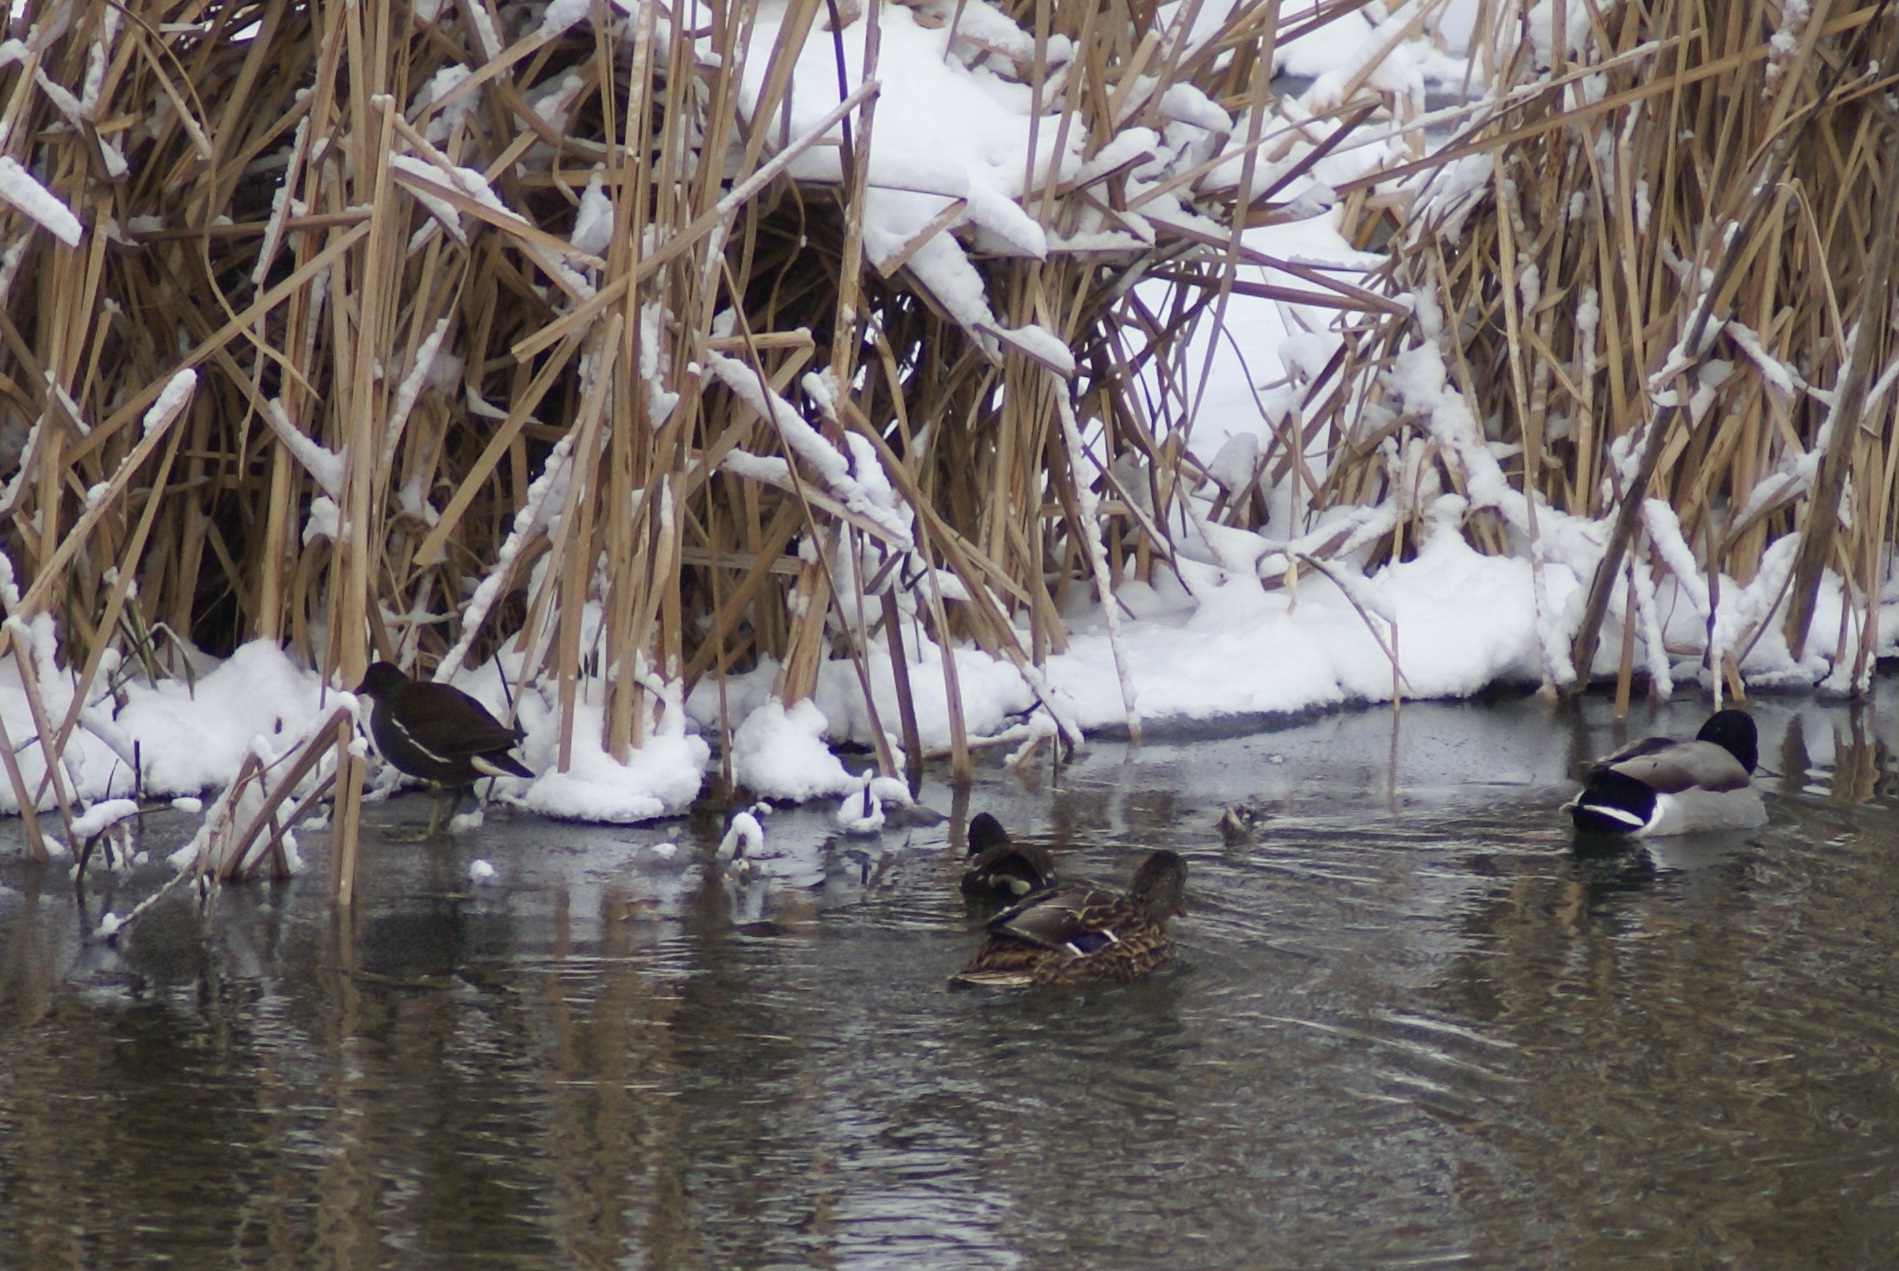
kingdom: Animalia
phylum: Chordata
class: Aves
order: Gruiformes
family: Rallidae
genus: Gallinula
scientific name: Gallinula chloropus
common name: Common moorhen
